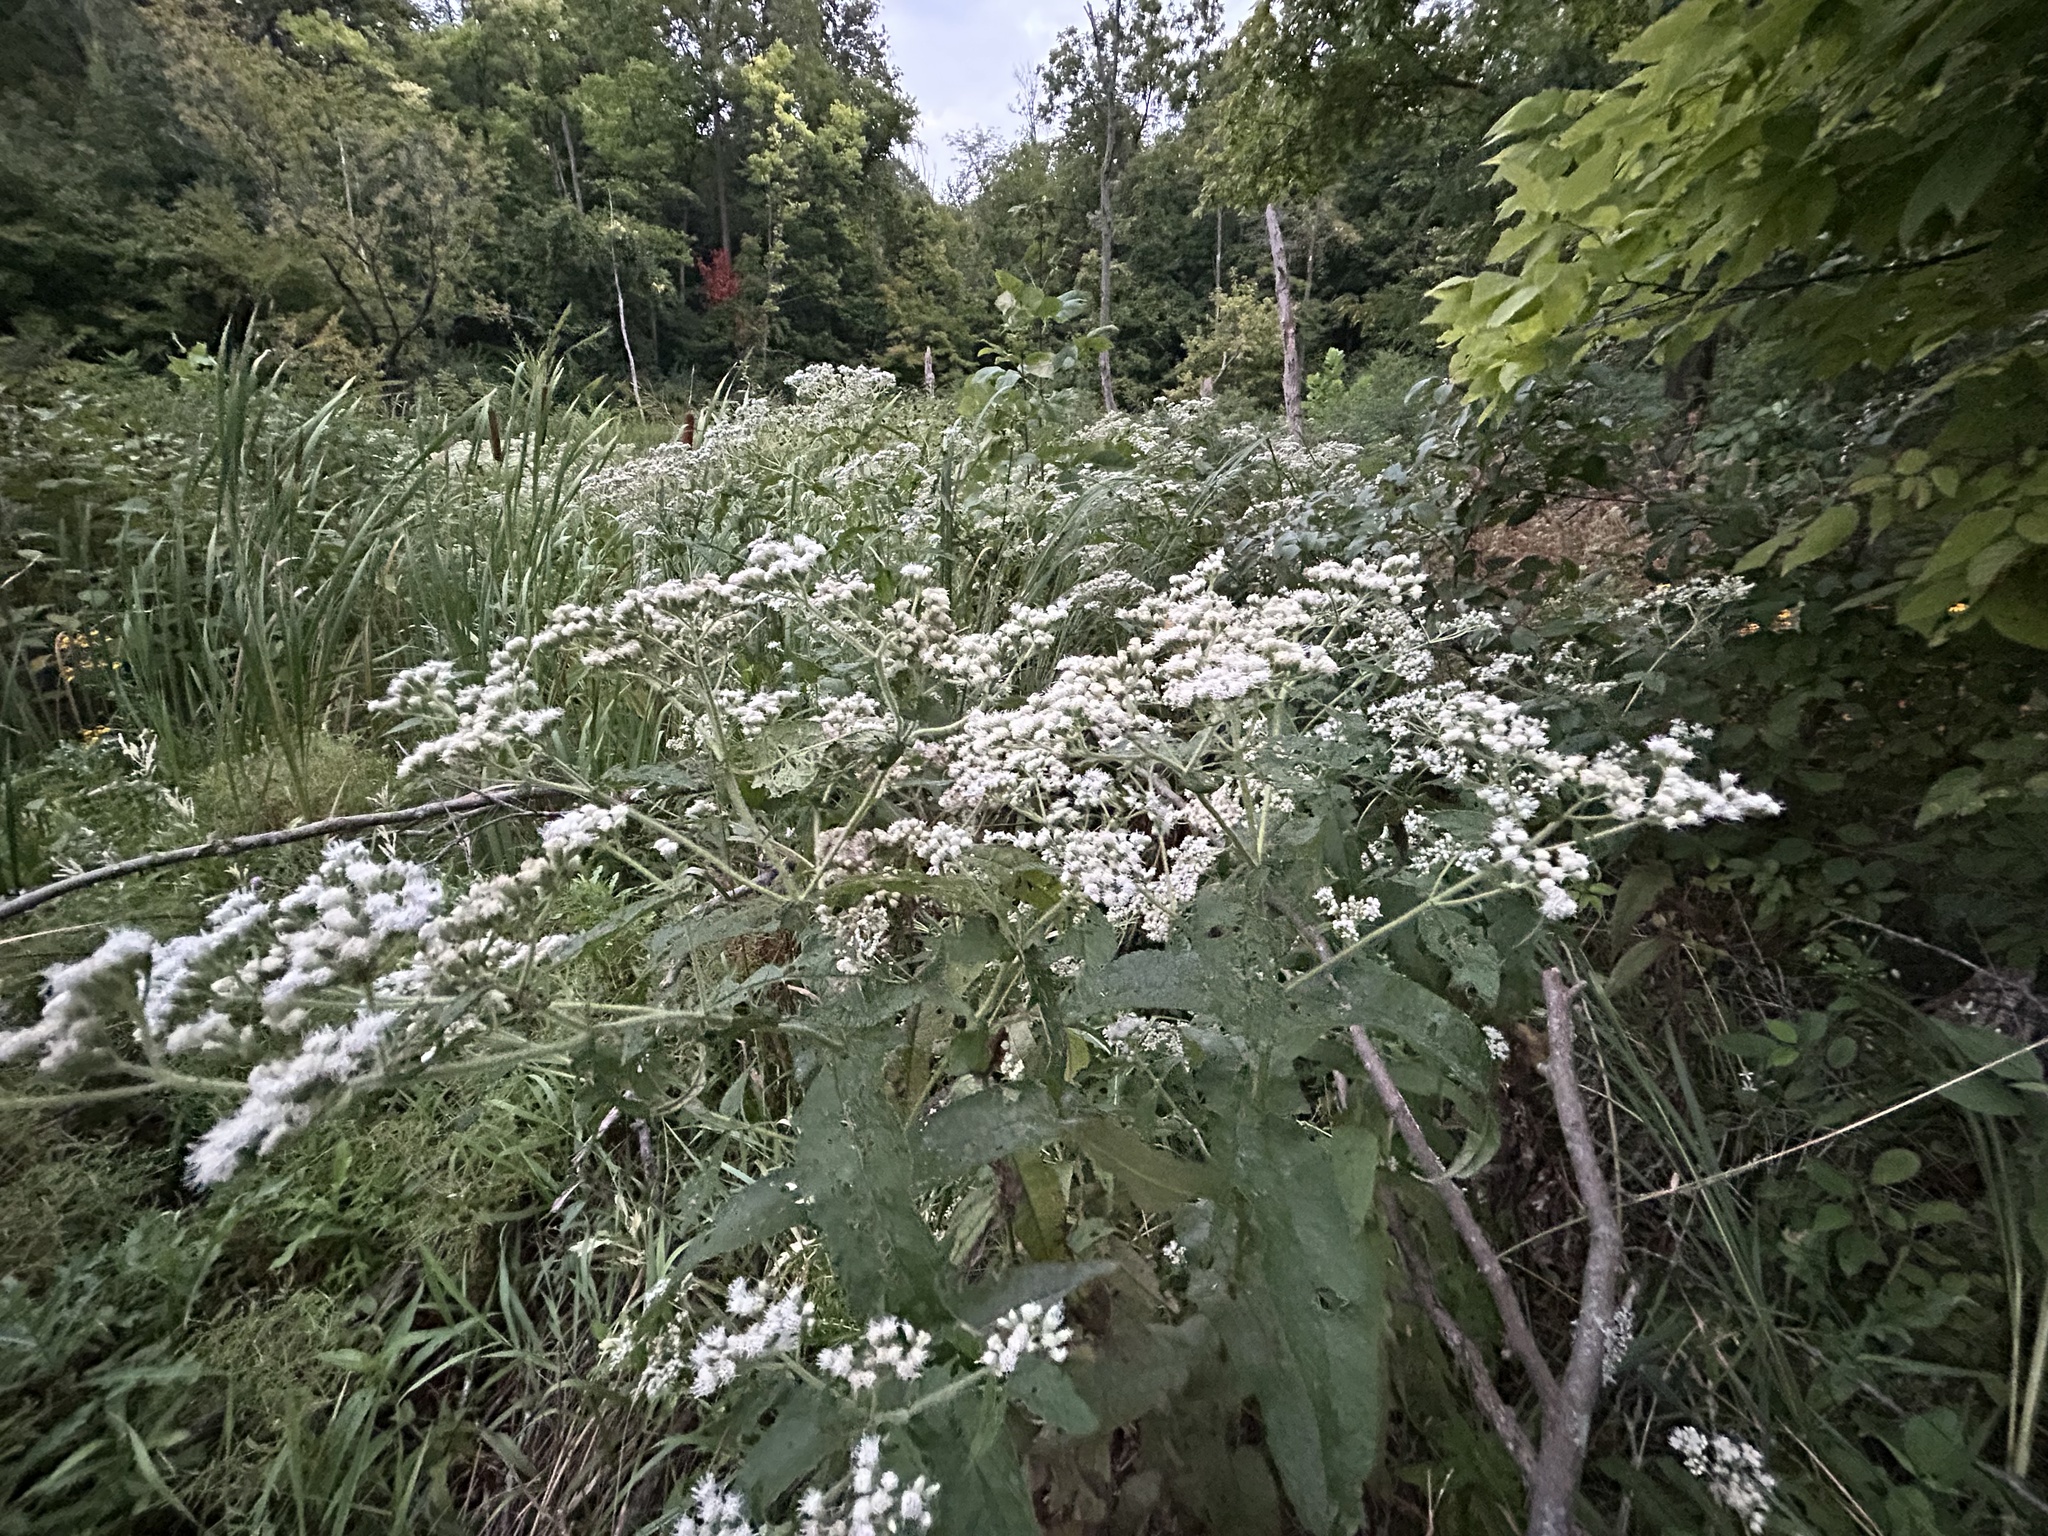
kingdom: Plantae
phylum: Tracheophyta
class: Magnoliopsida
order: Asterales
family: Asteraceae
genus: Eupatorium
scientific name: Eupatorium perfoliatum
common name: Boneset
